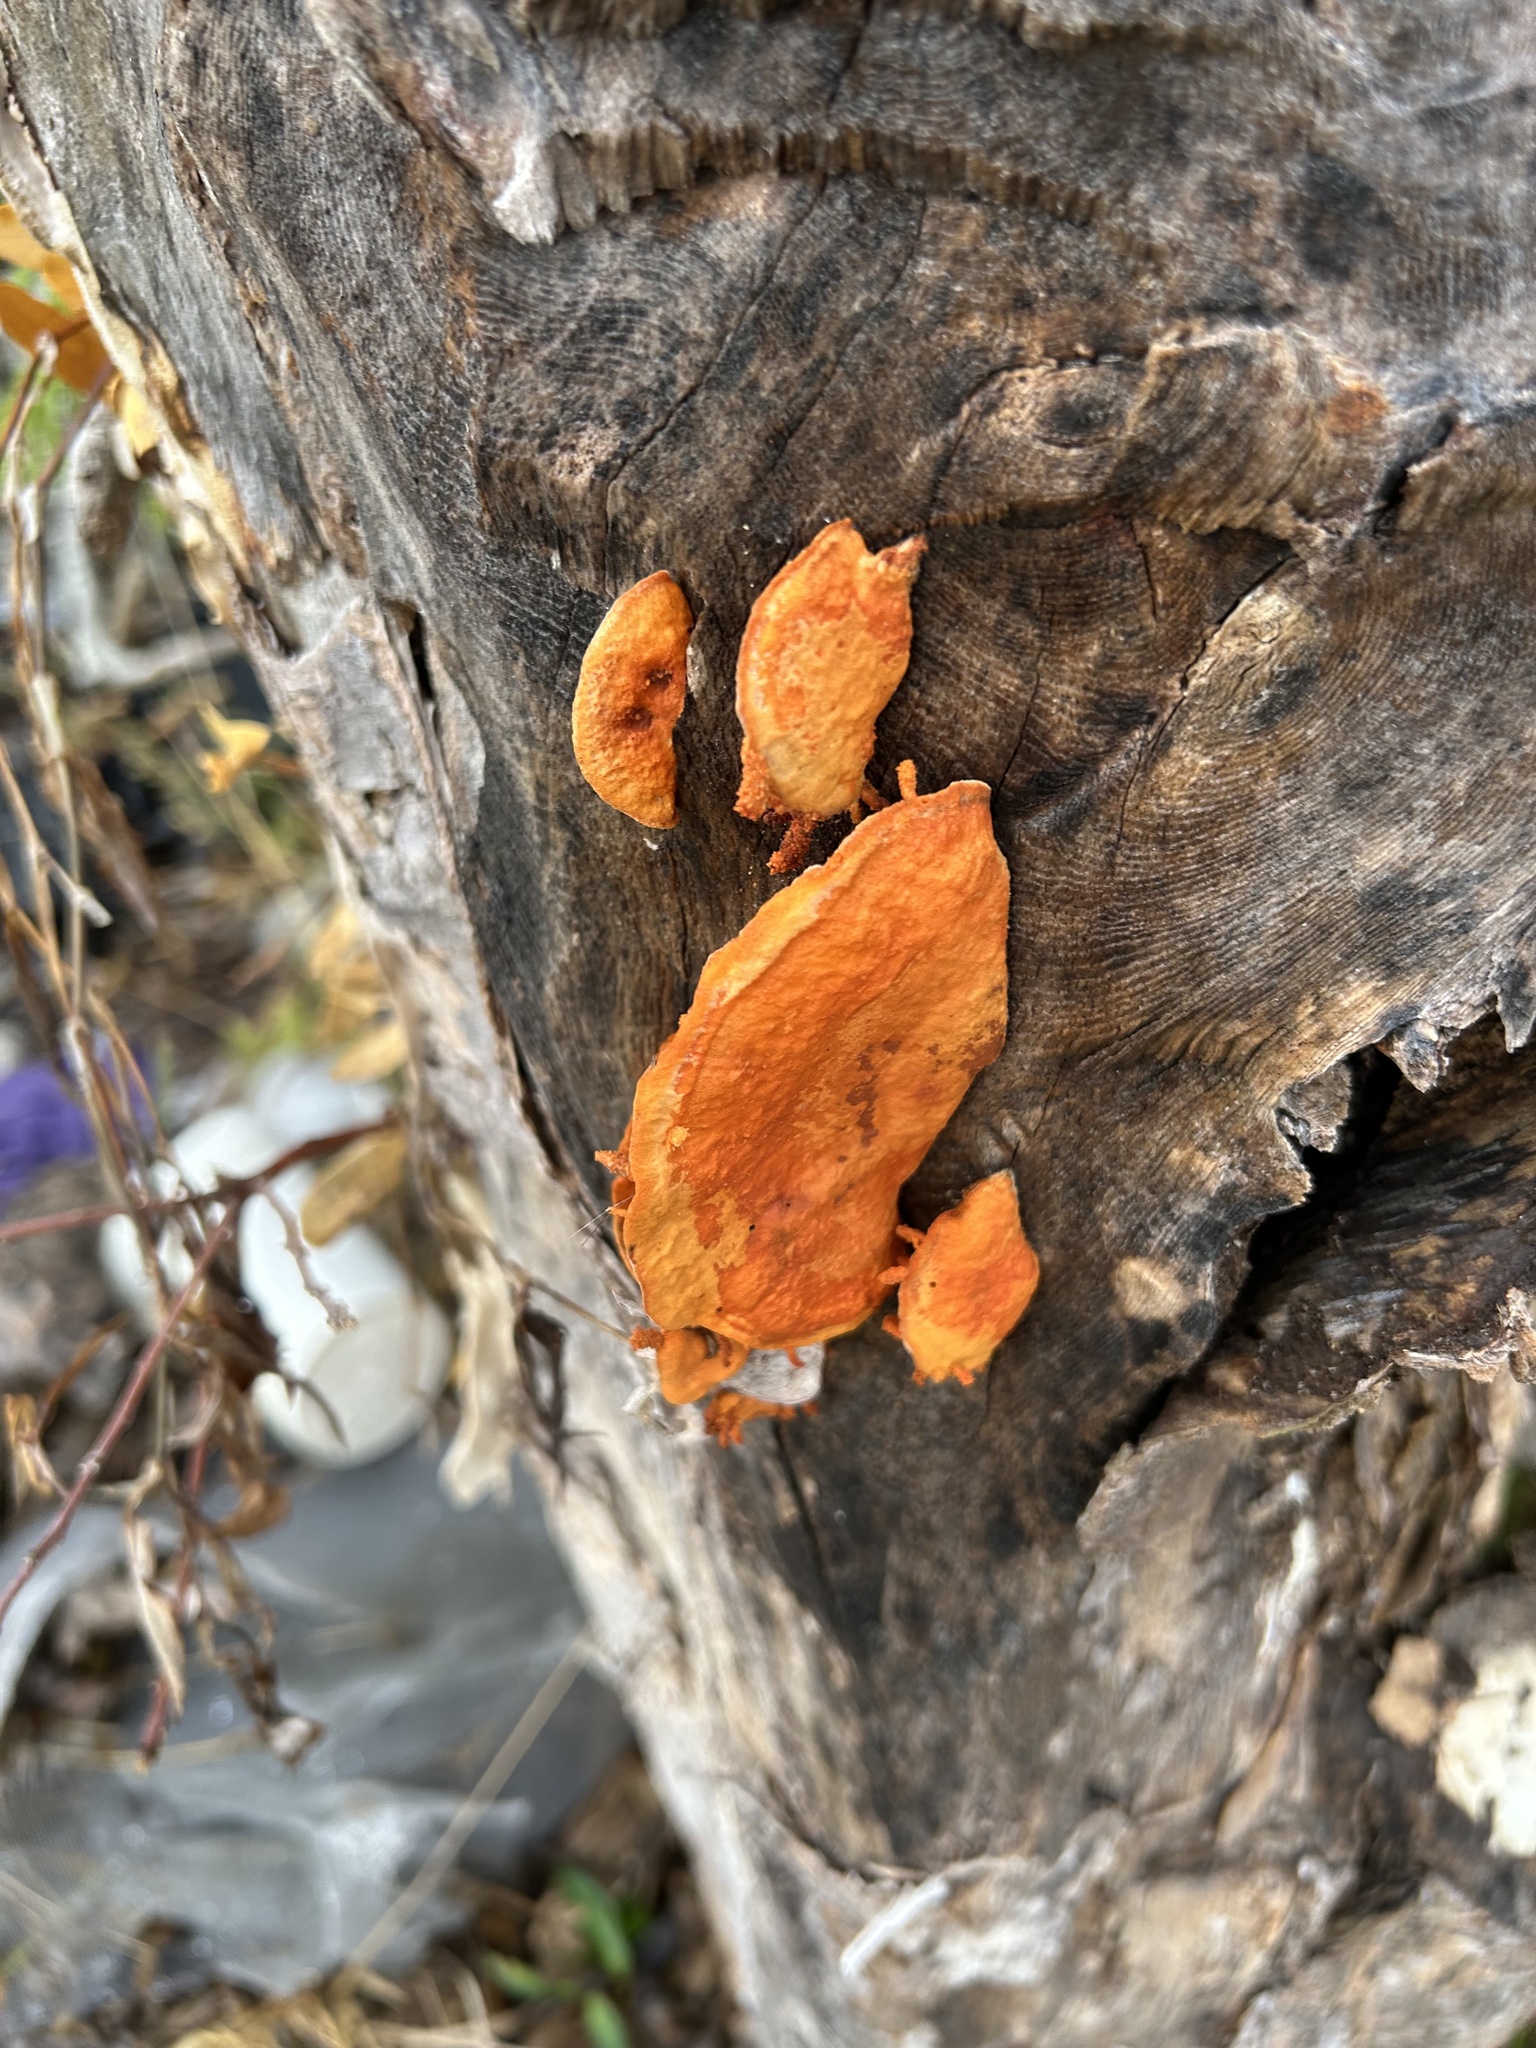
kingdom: Fungi
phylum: Basidiomycota
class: Agaricomycetes
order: Polyporales
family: Polyporaceae
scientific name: Polyporaceae
